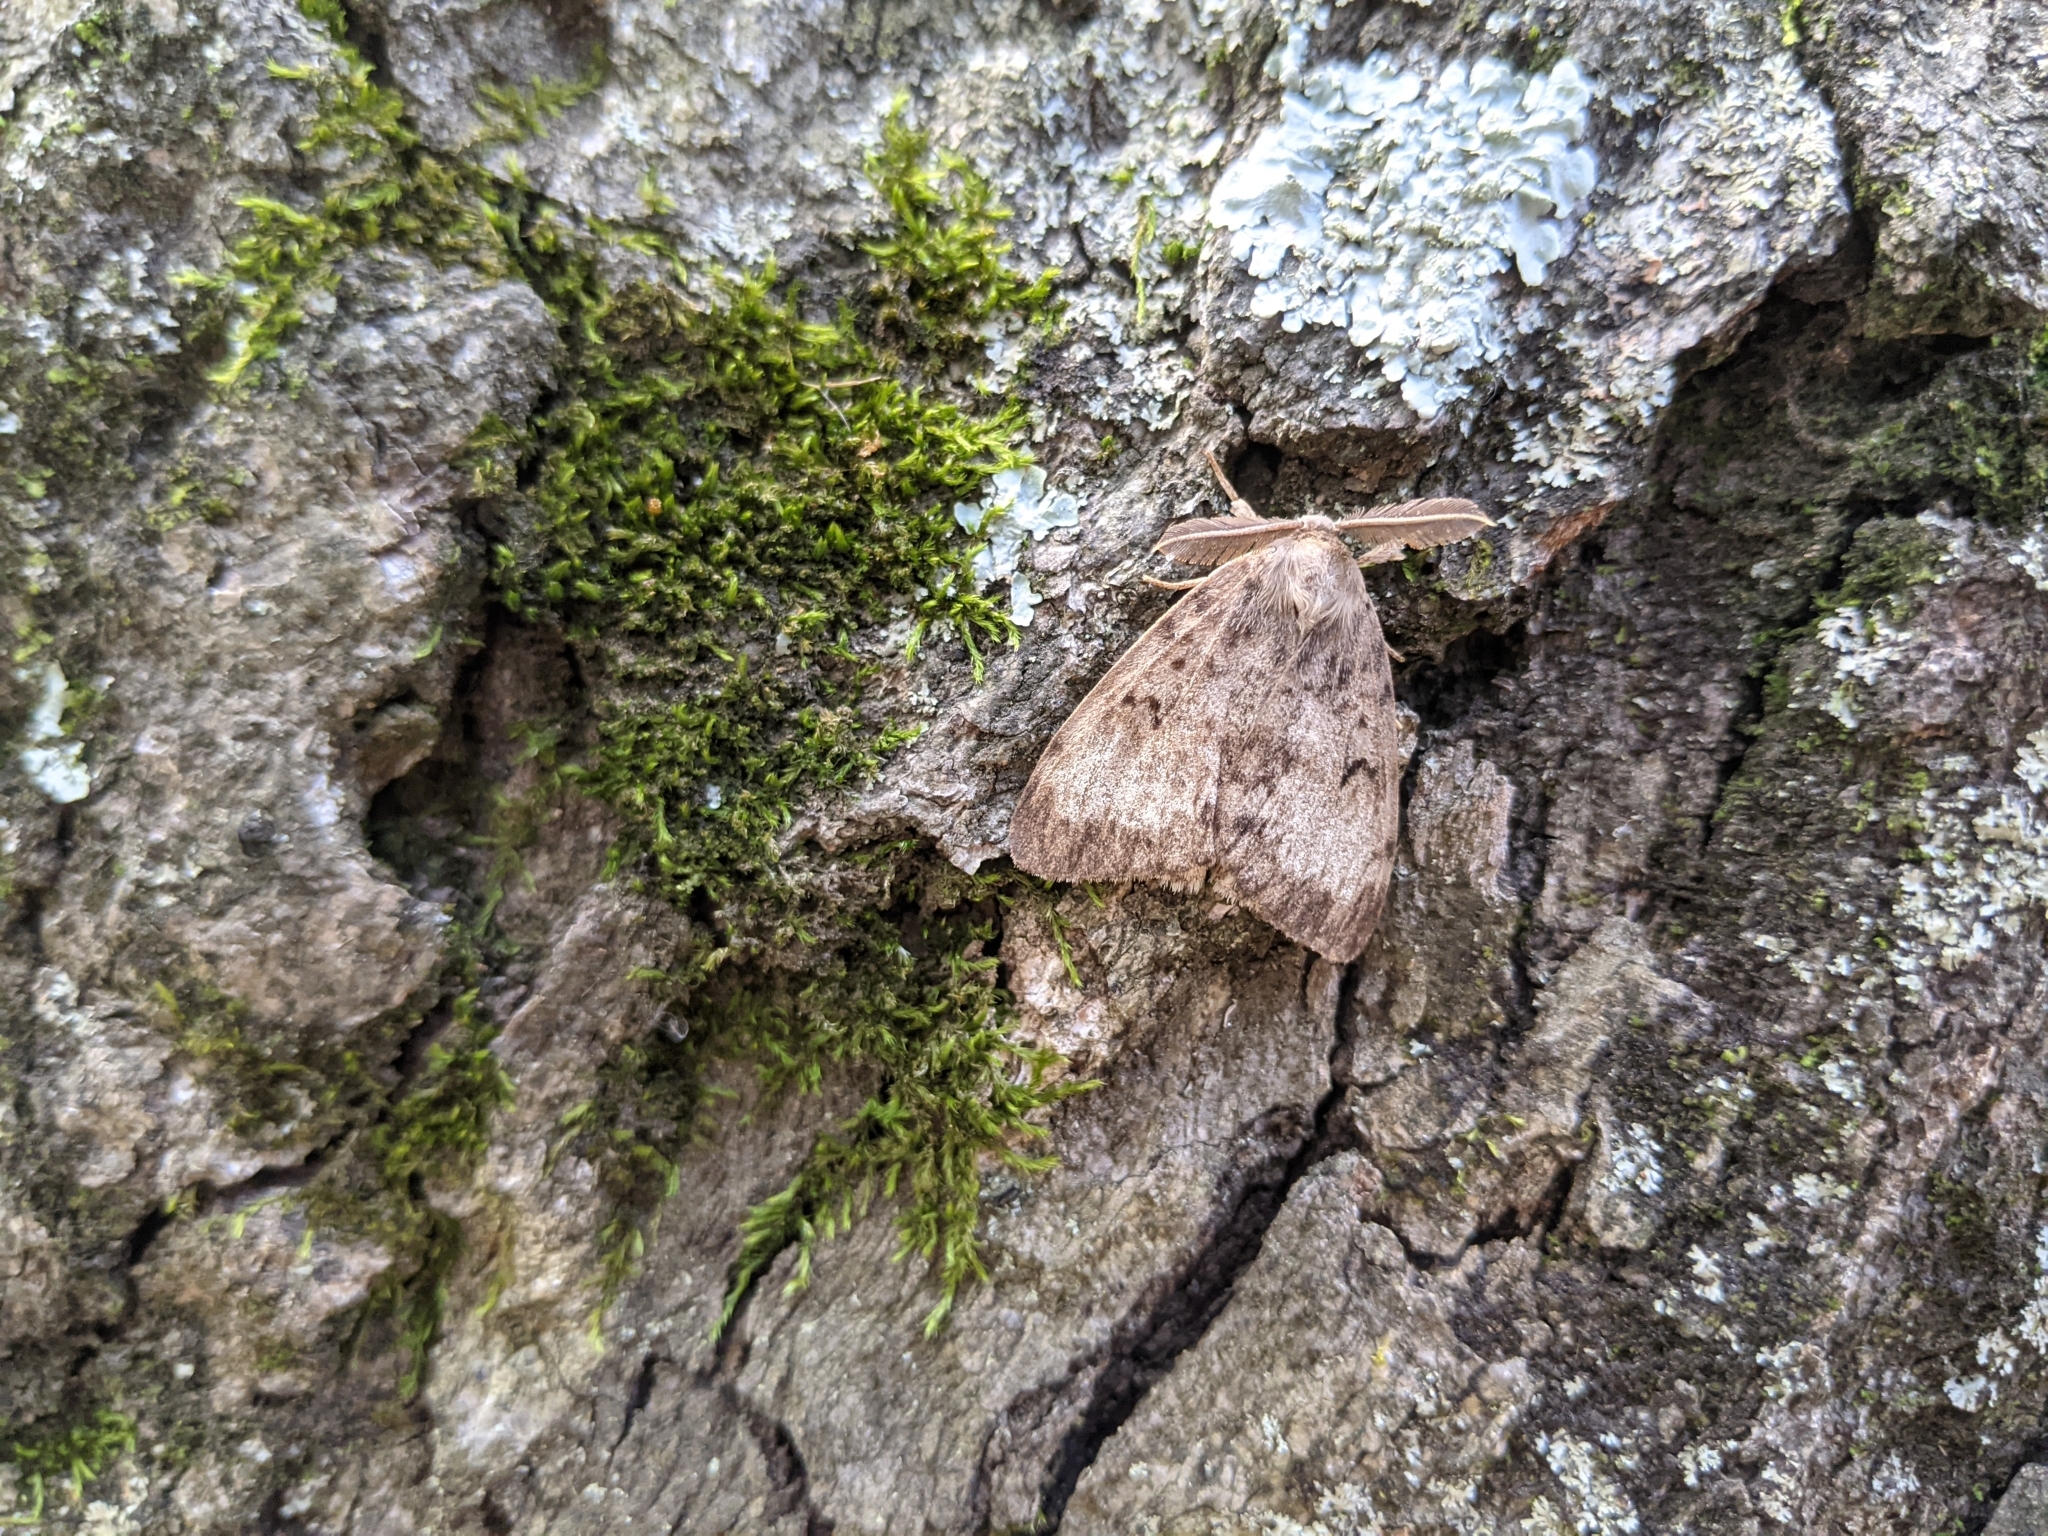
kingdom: Animalia
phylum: Arthropoda
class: Insecta
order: Lepidoptera
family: Erebidae
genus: Lymantria
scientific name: Lymantria dispar
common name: Gypsy moth
